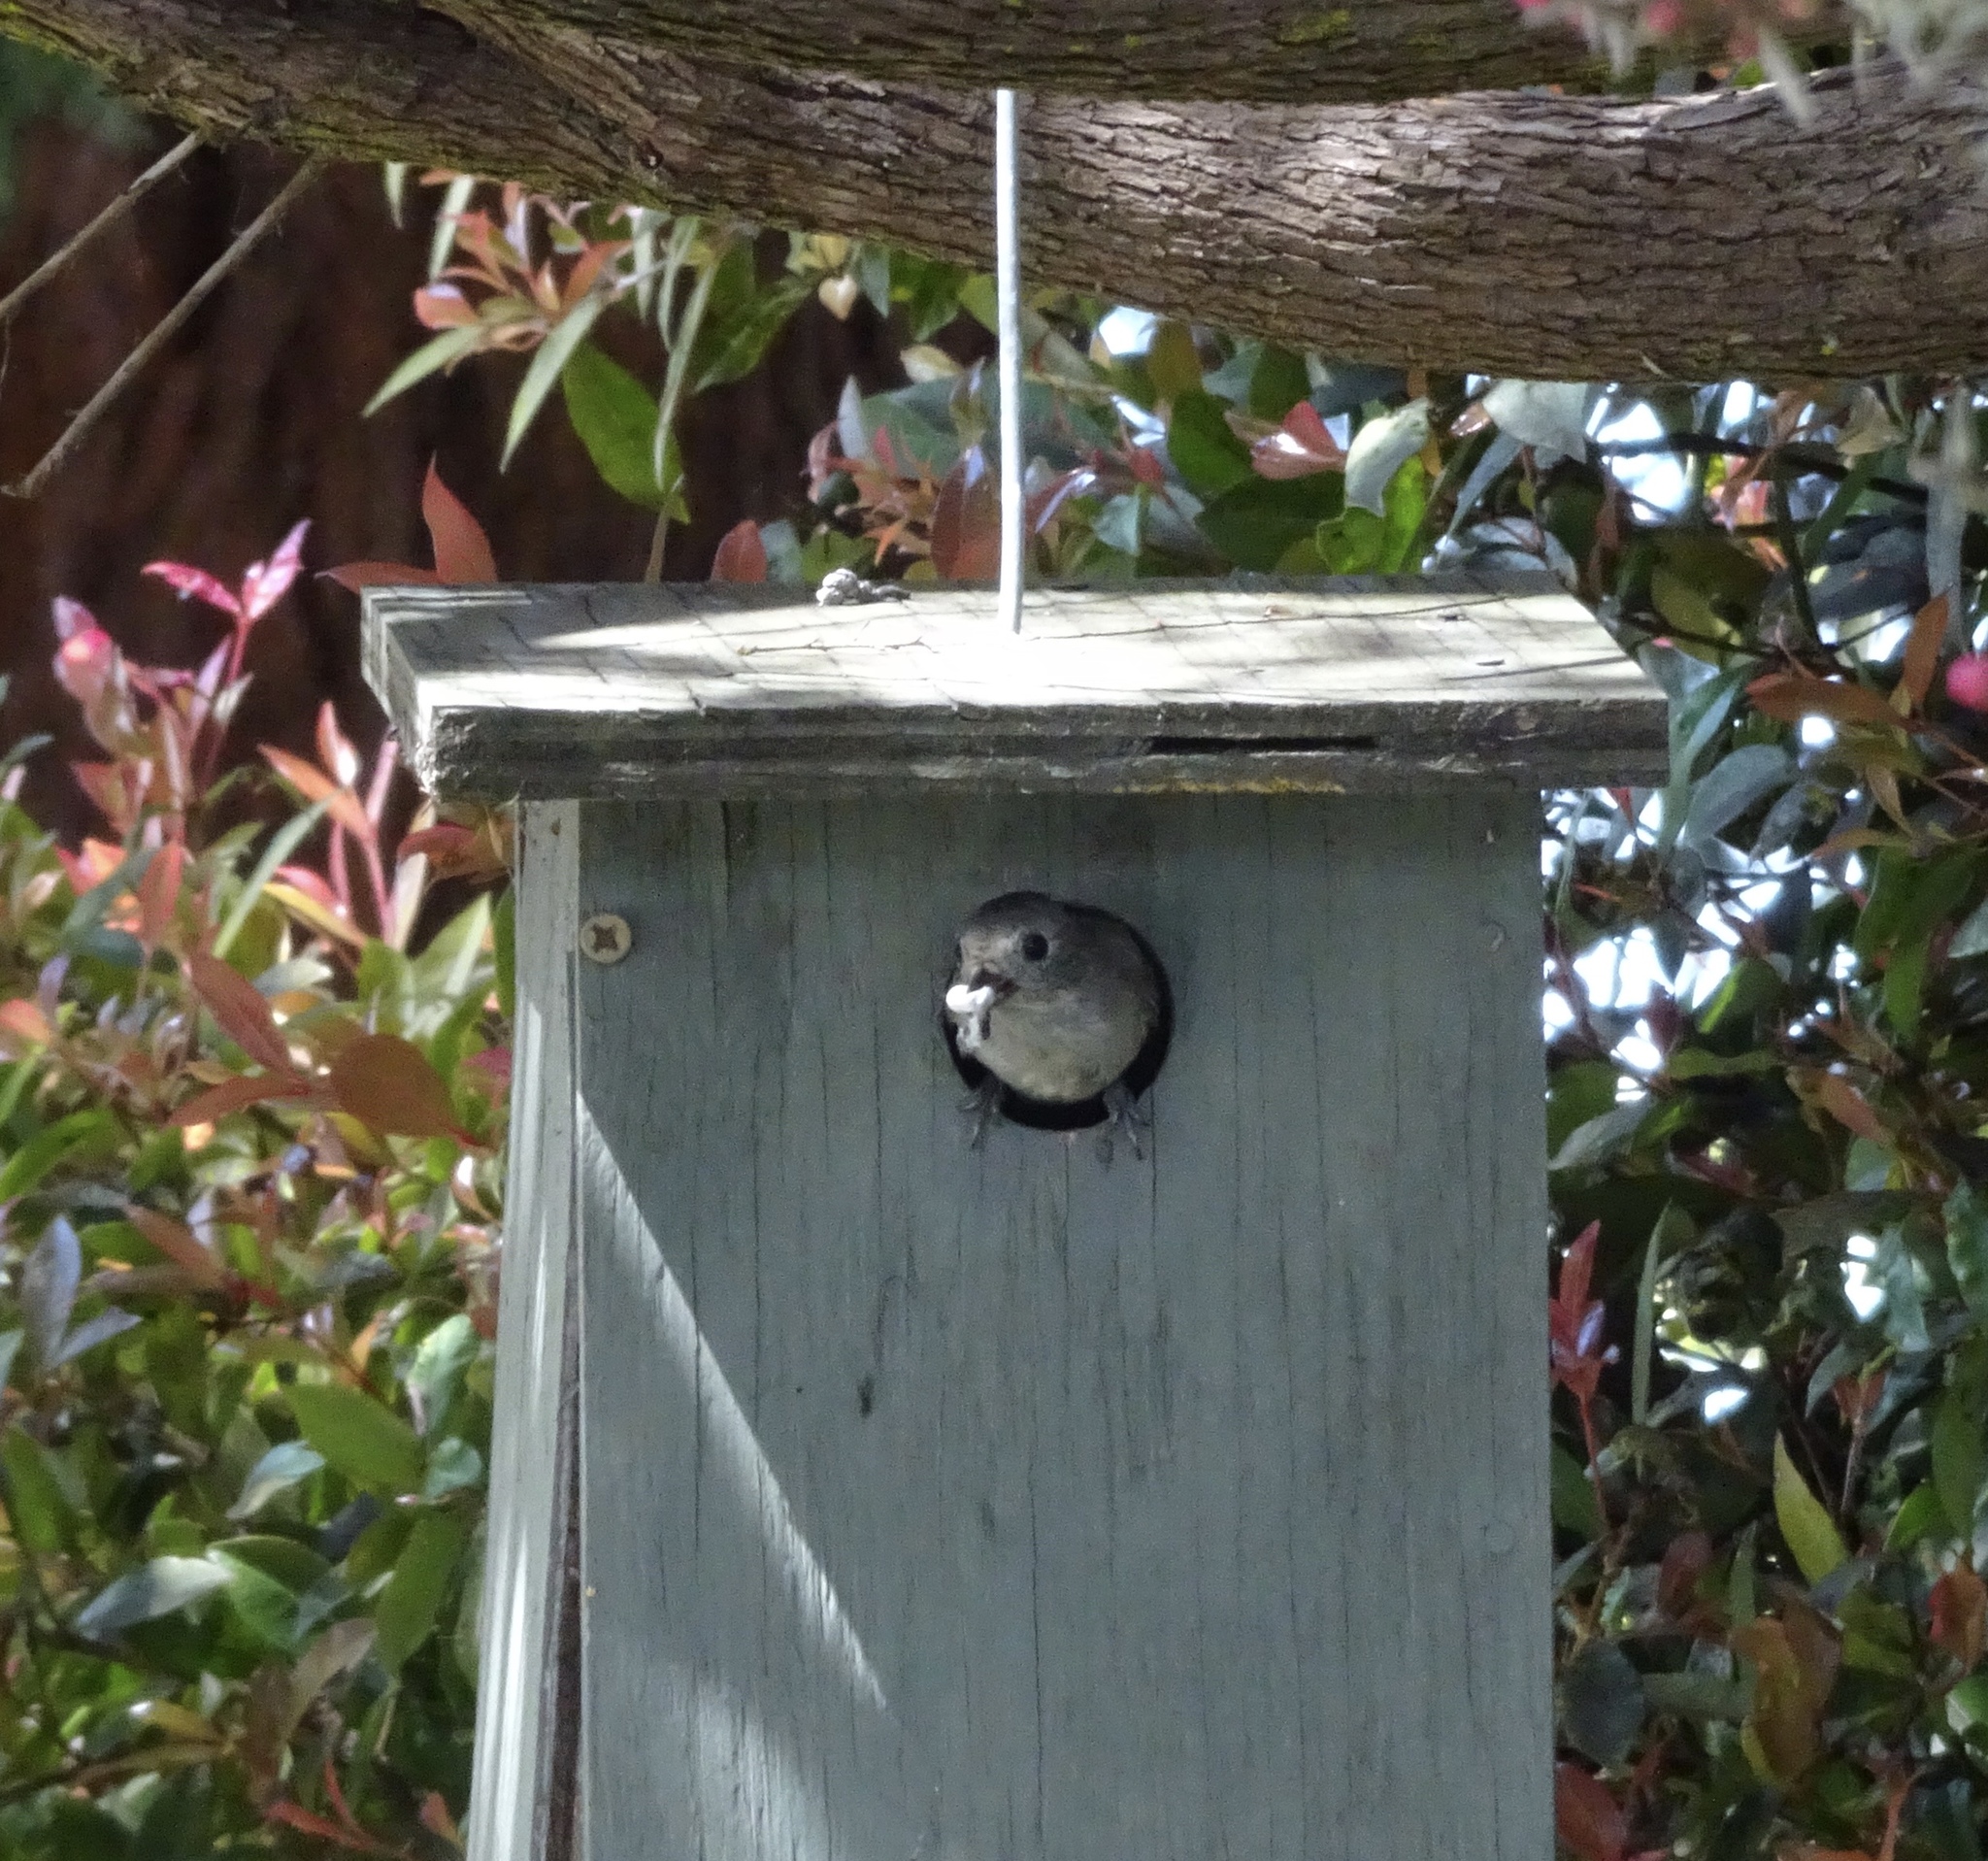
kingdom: Animalia
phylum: Chordata
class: Aves
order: Passeriformes
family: Paridae
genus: Baeolophus
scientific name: Baeolophus inornatus
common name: Oak titmouse
